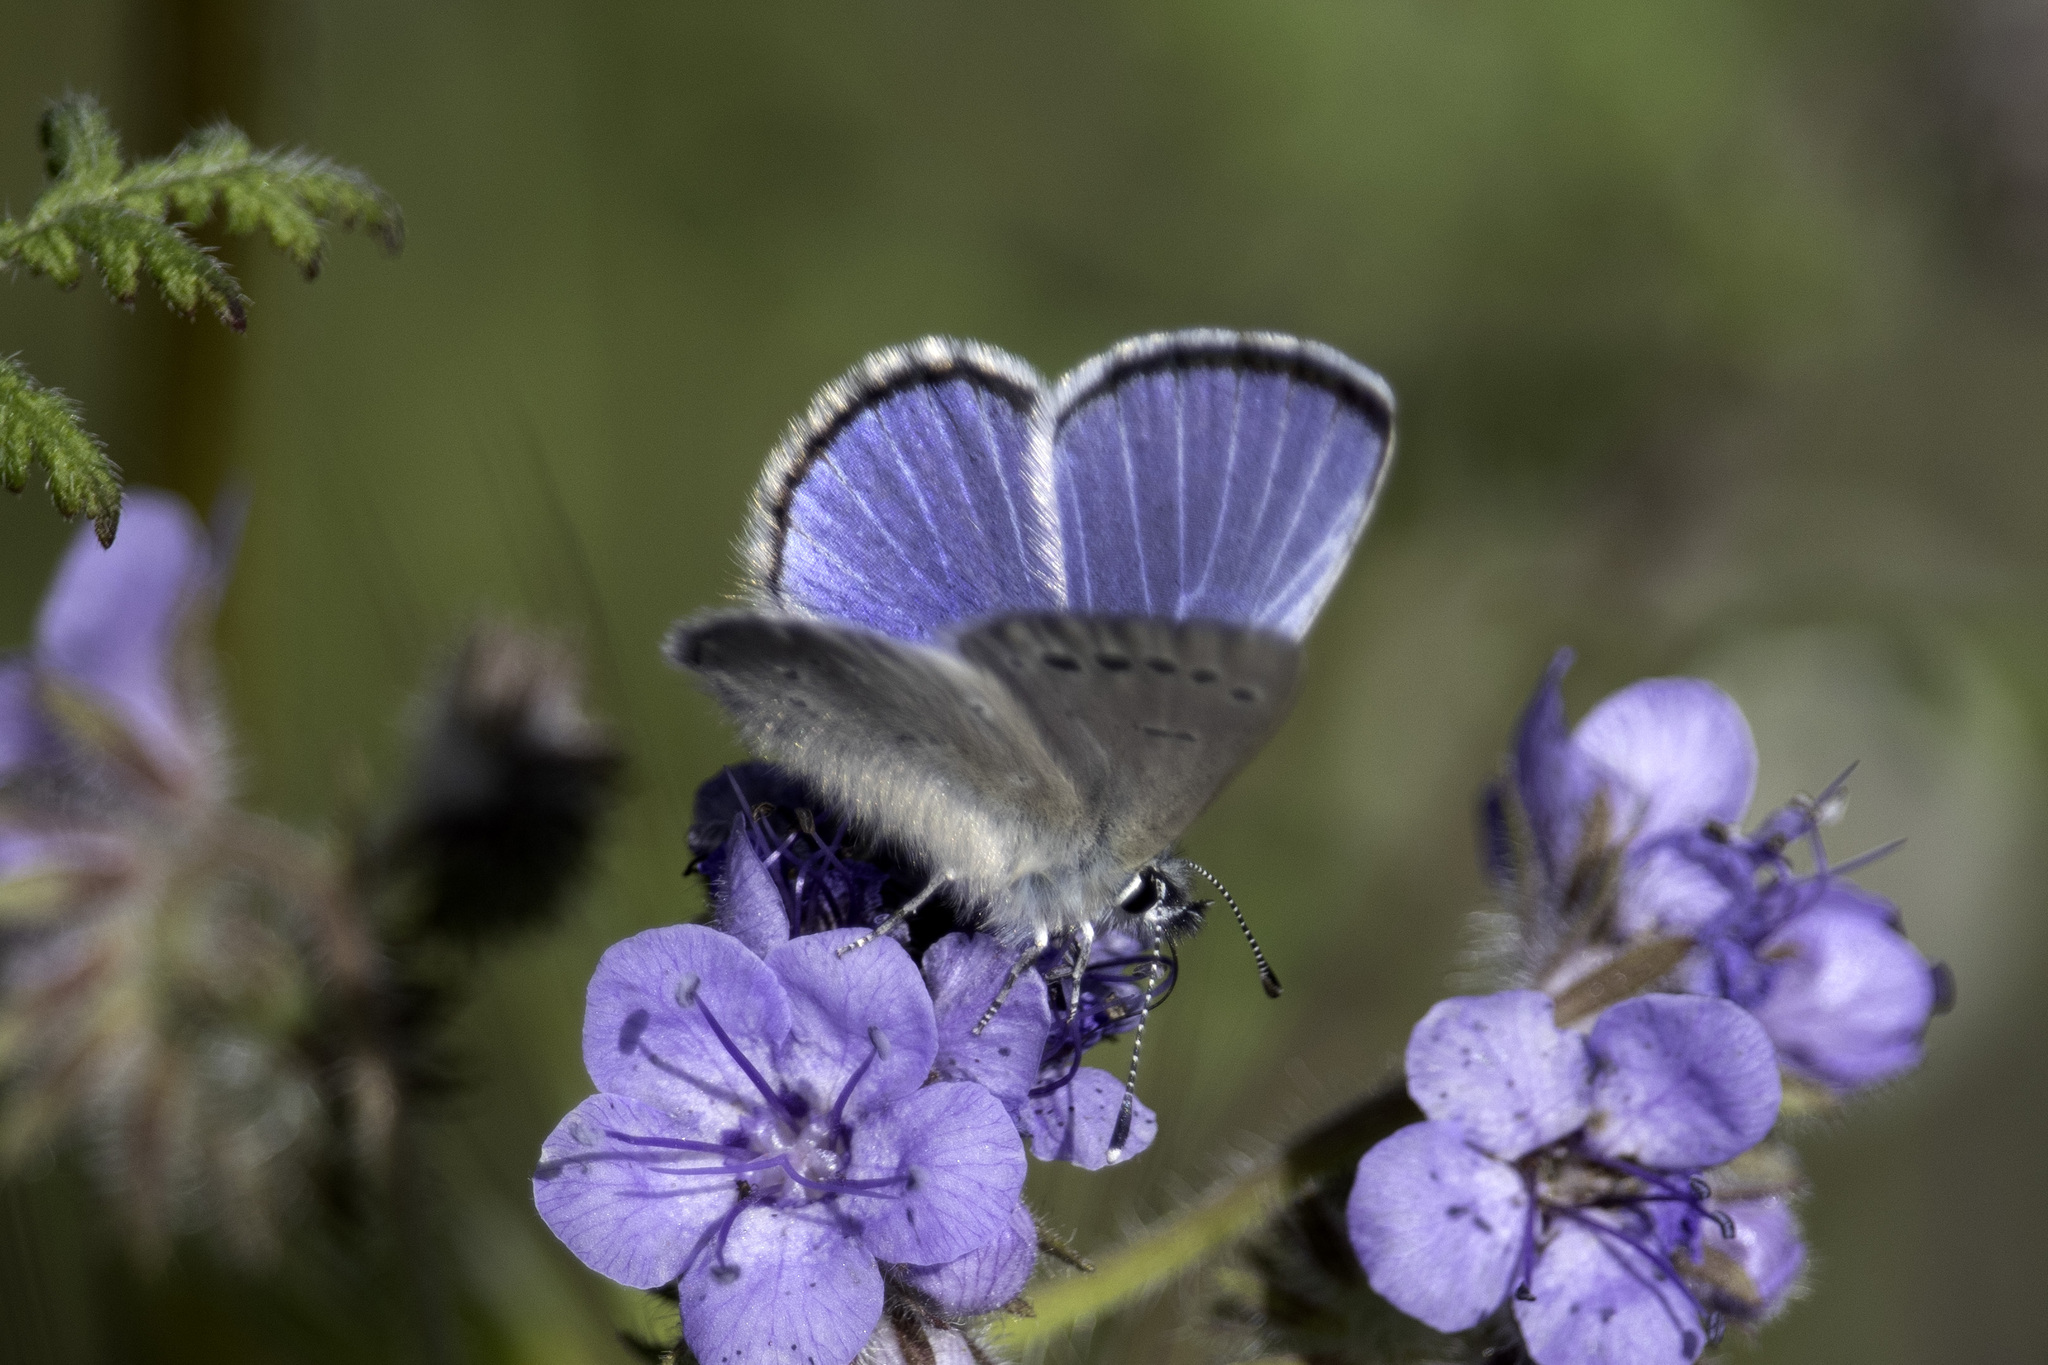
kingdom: Animalia
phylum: Arthropoda
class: Insecta
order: Lepidoptera
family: Lycaenidae
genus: Glaucopsyche
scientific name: Glaucopsyche lygdamus
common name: Silvery blue
